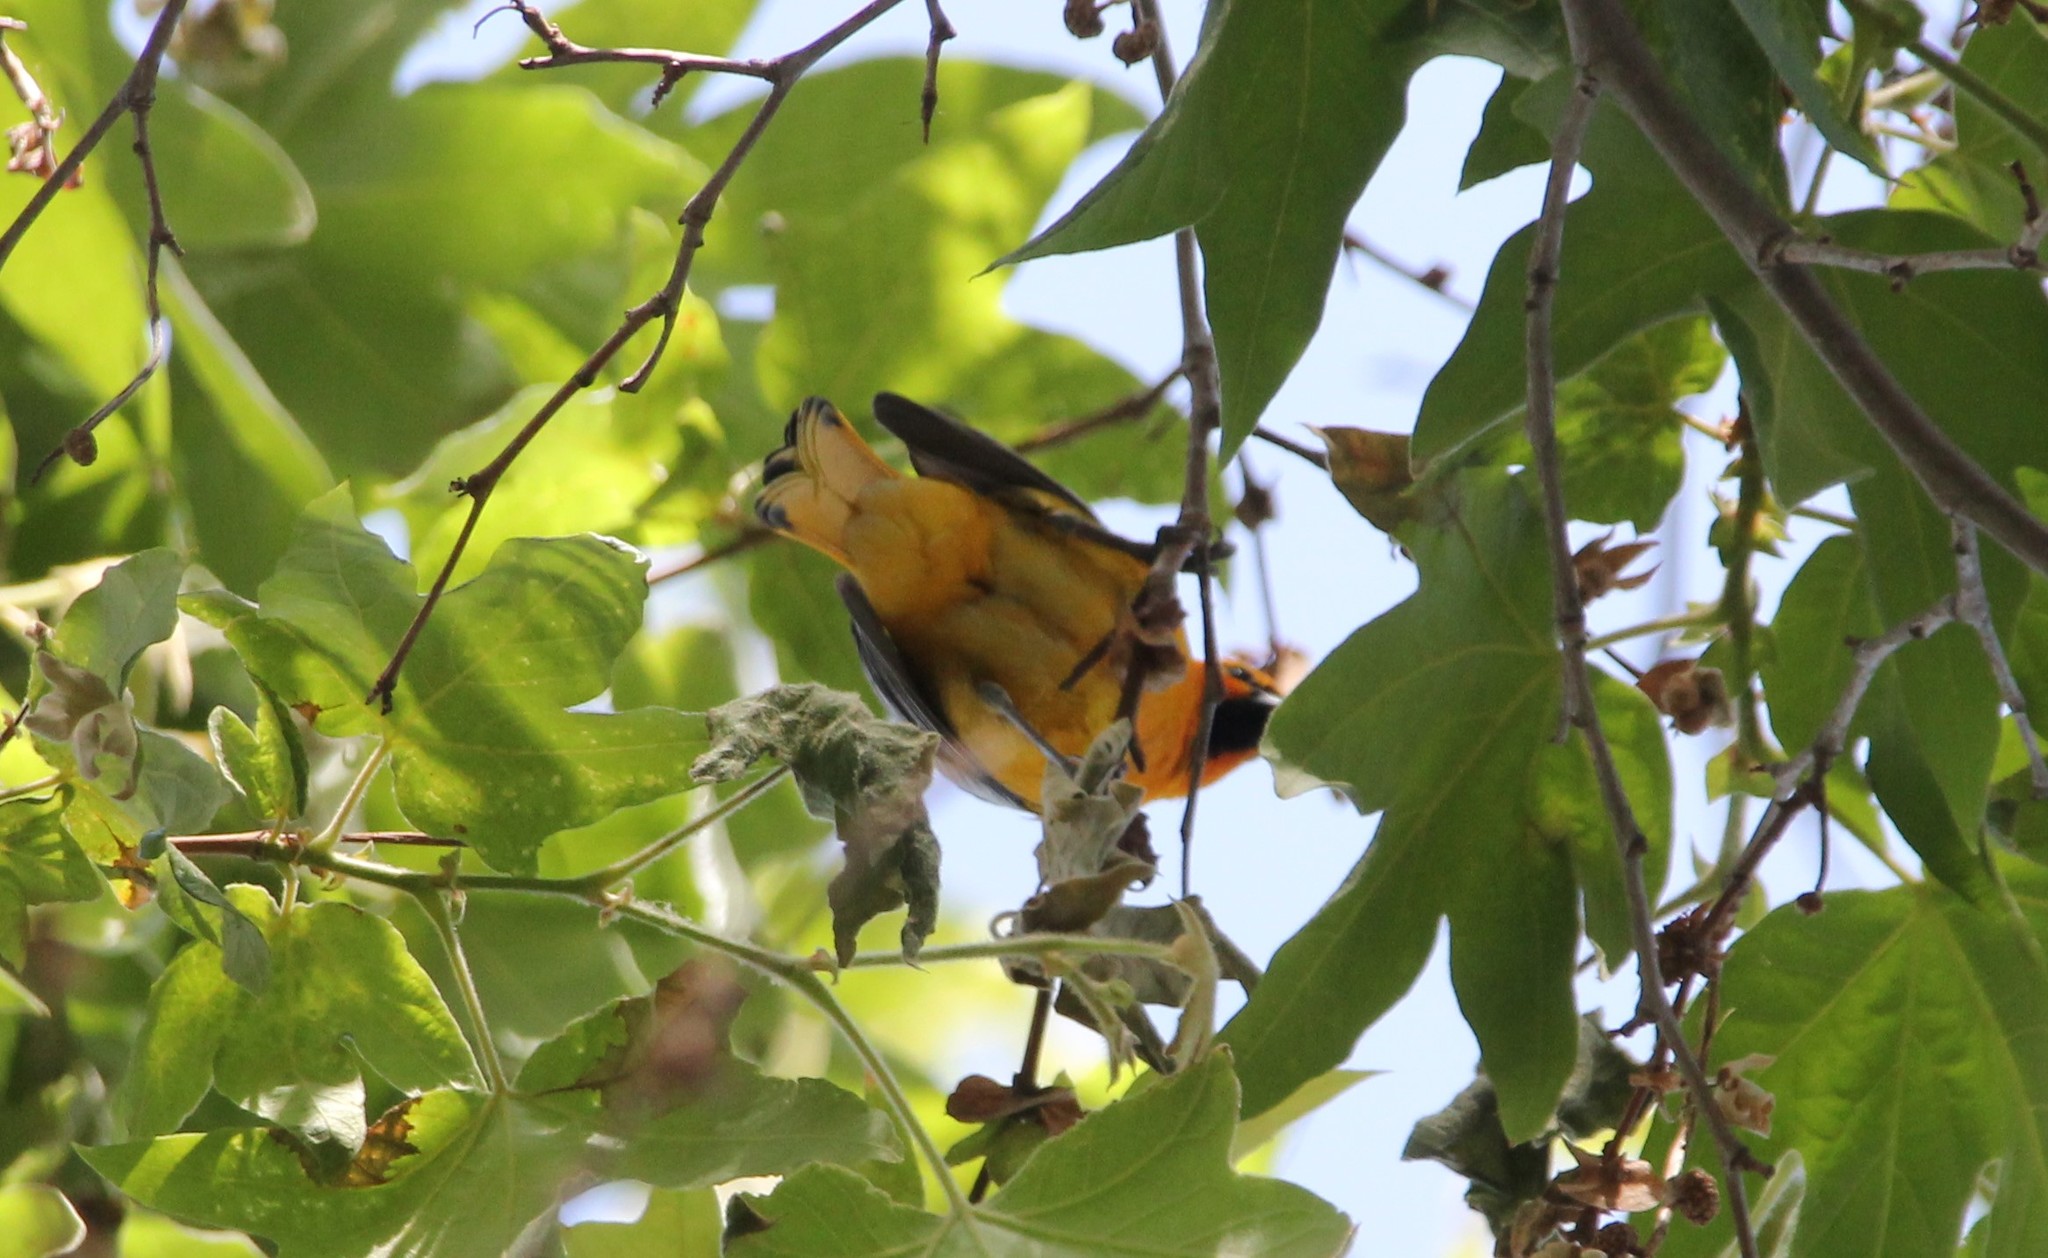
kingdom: Animalia
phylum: Chordata
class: Aves
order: Passeriformes
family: Icteridae
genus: Icterus
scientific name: Icterus bullockii
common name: Bullock's oriole
